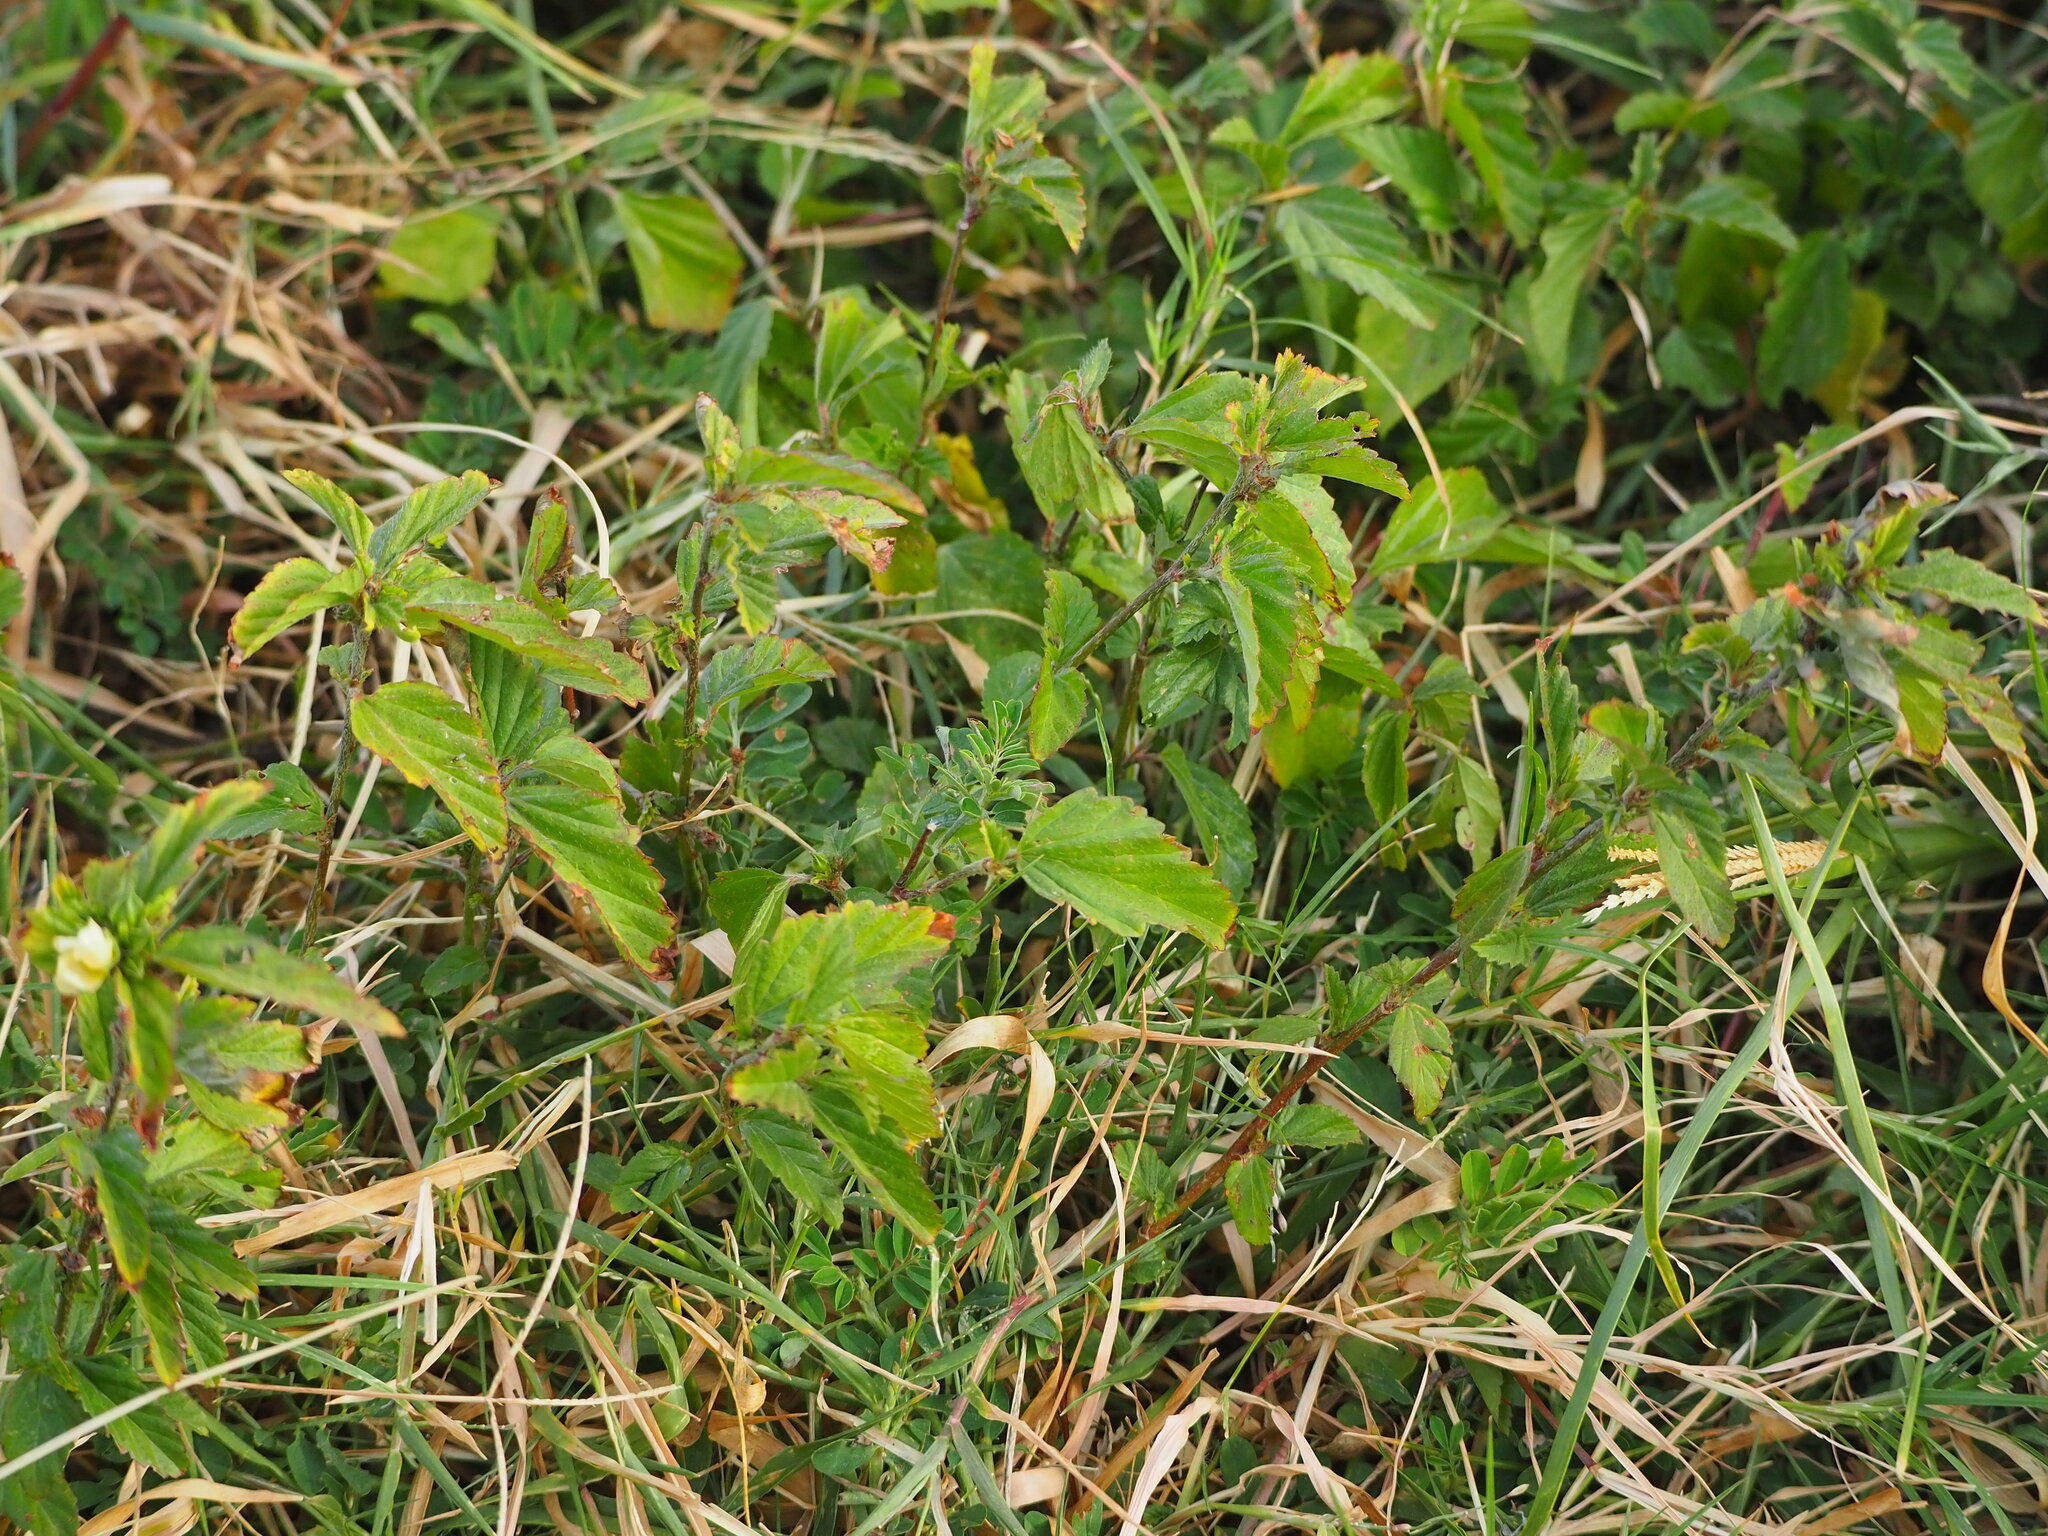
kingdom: Plantae
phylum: Tracheophyta
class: Magnoliopsida
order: Malvales
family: Malvaceae
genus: Malvastrum
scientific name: Malvastrum coromandelianum
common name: Threelobe false mallow
